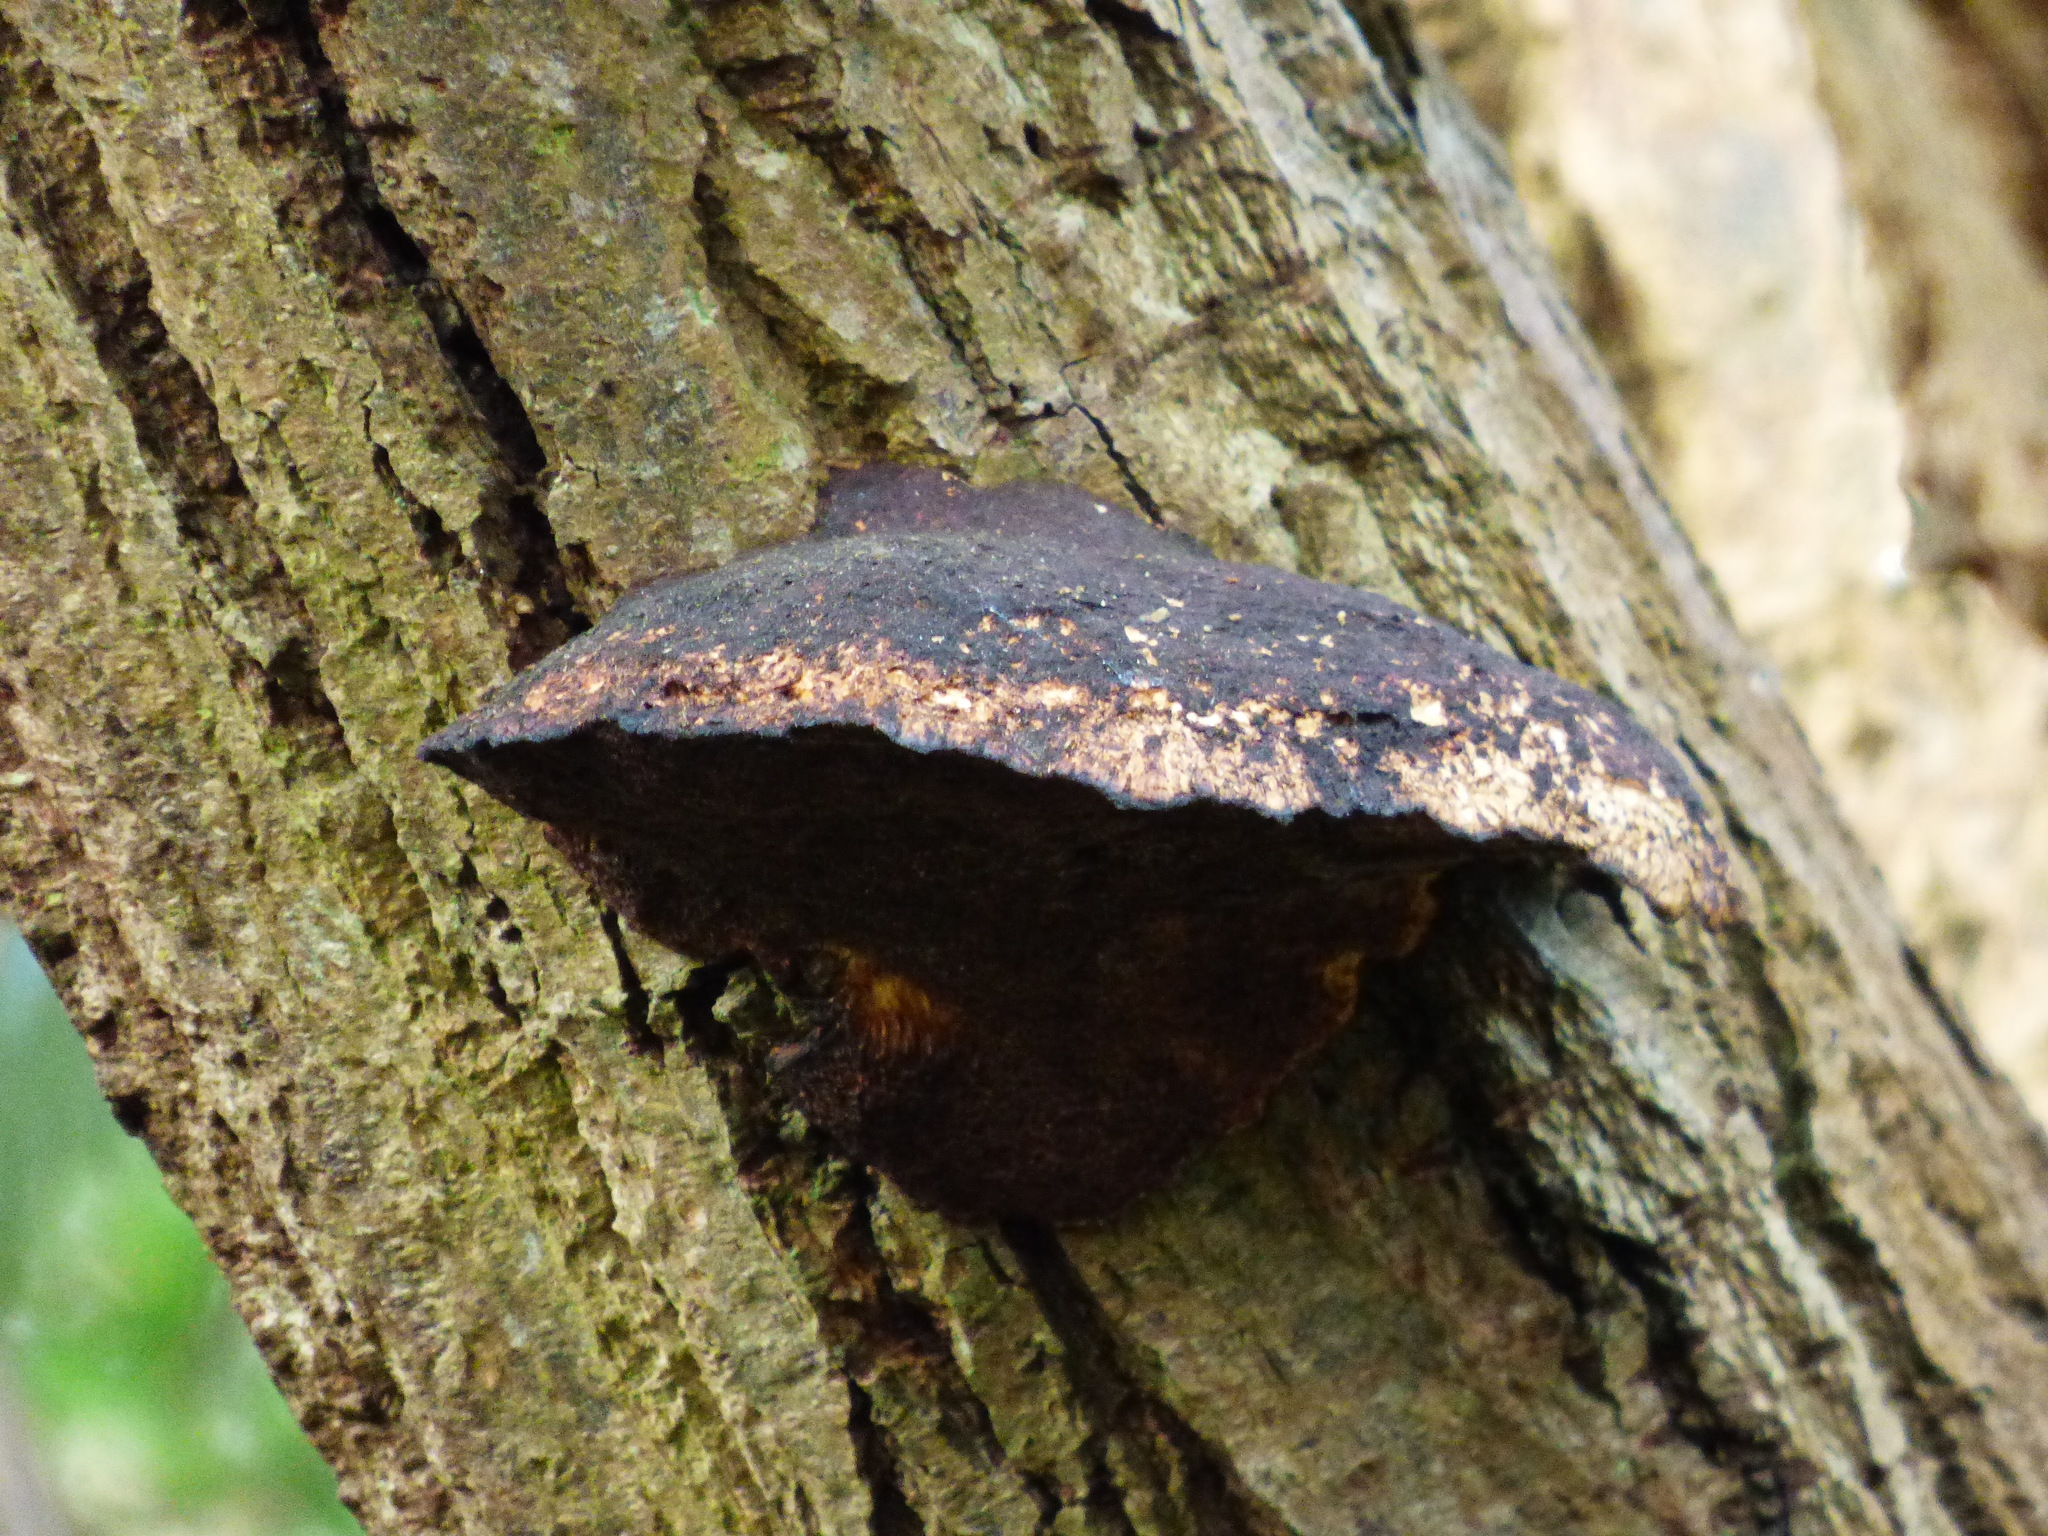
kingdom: Fungi
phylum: Basidiomycota
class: Agaricomycetes
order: Hymenochaetales
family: Hymenochaetaceae
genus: Phellinus
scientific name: Phellinus igniarius
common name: Willow bracket
